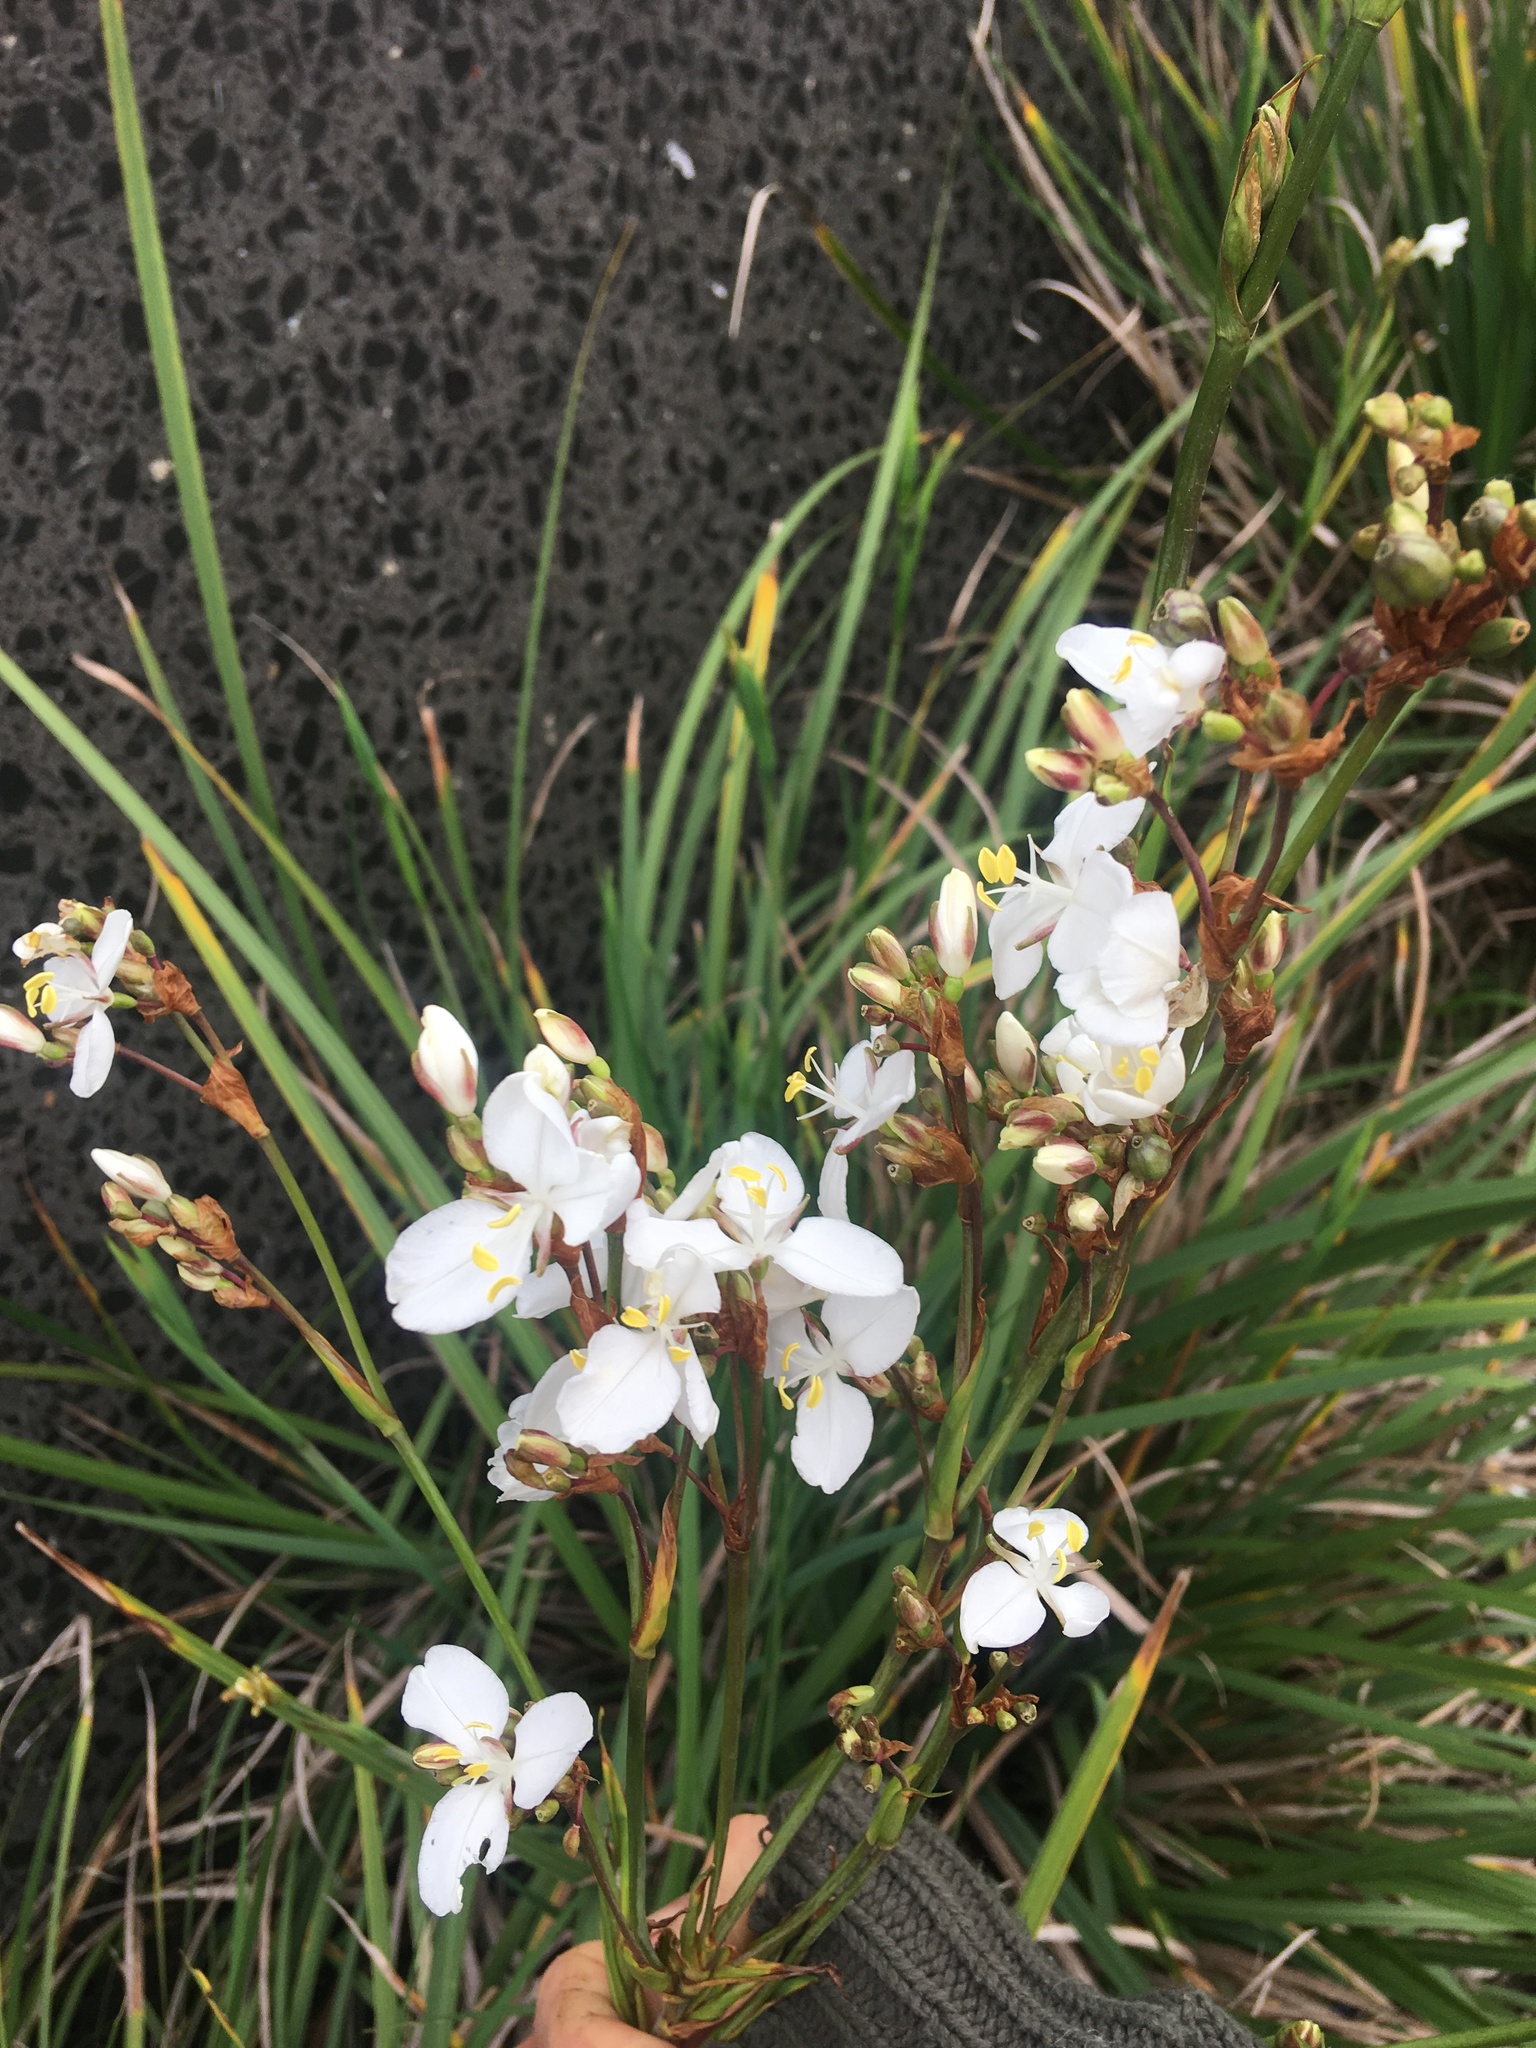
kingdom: Plantae
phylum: Tracheophyta
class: Liliopsida
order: Asparagales
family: Iridaceae
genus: Libertia
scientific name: Libertia ixioides
